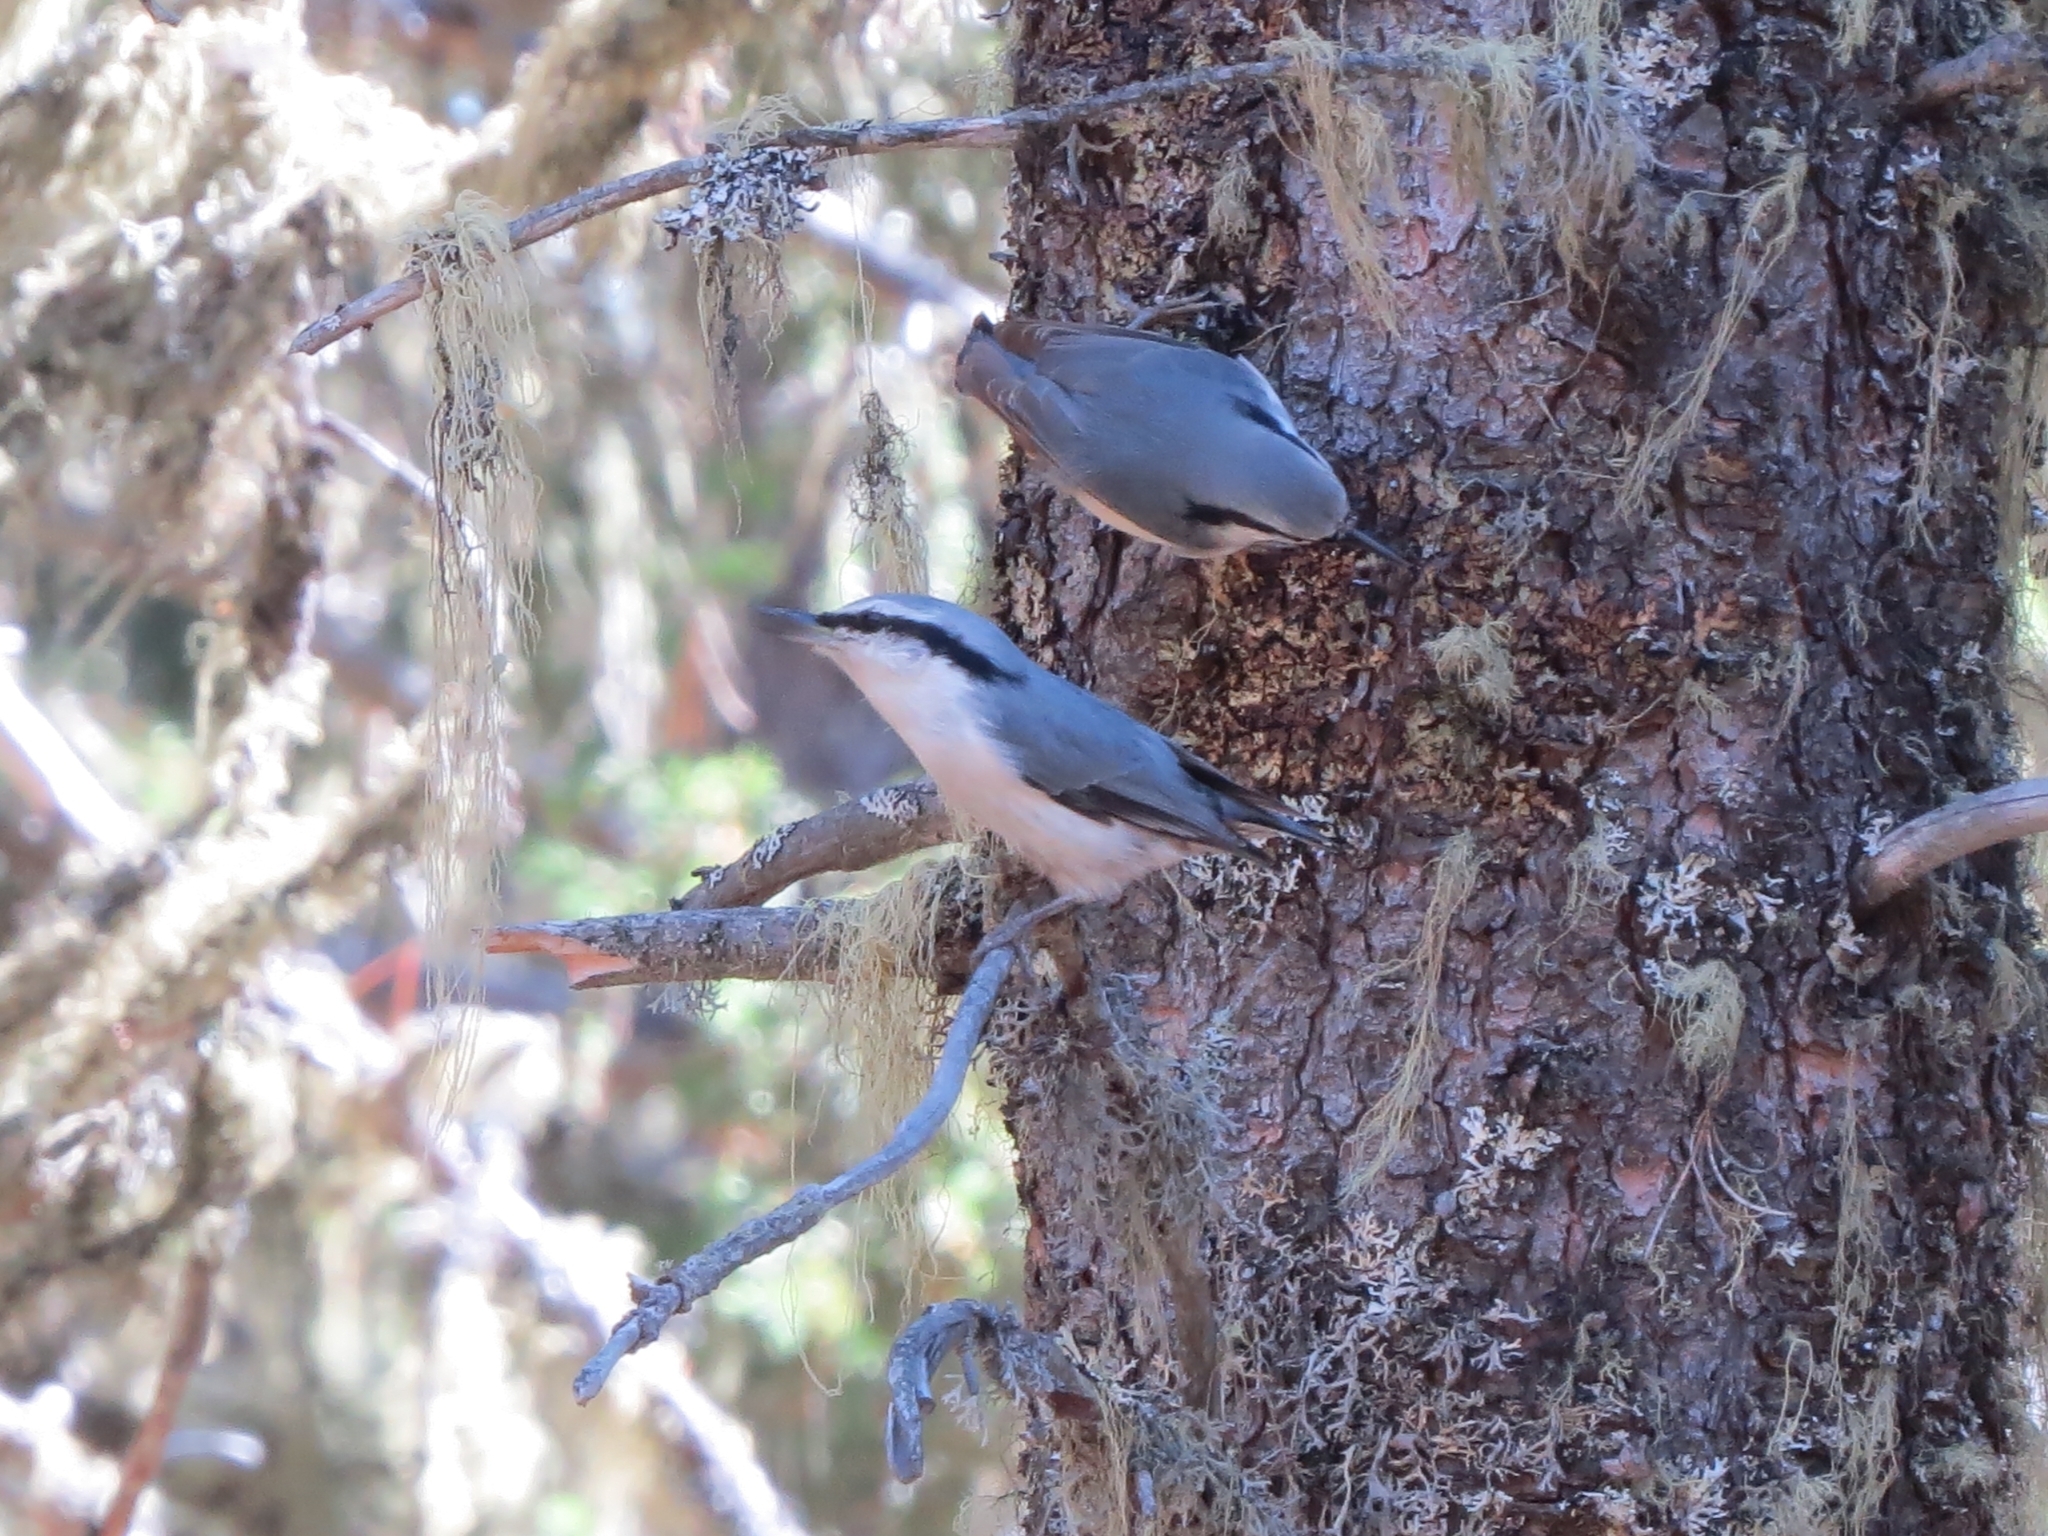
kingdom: Animalia
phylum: Chordata
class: Aves
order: Passeriformes
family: Sittidae
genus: Sitta
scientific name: Sitta europaea
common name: Eurasian nuthatch
